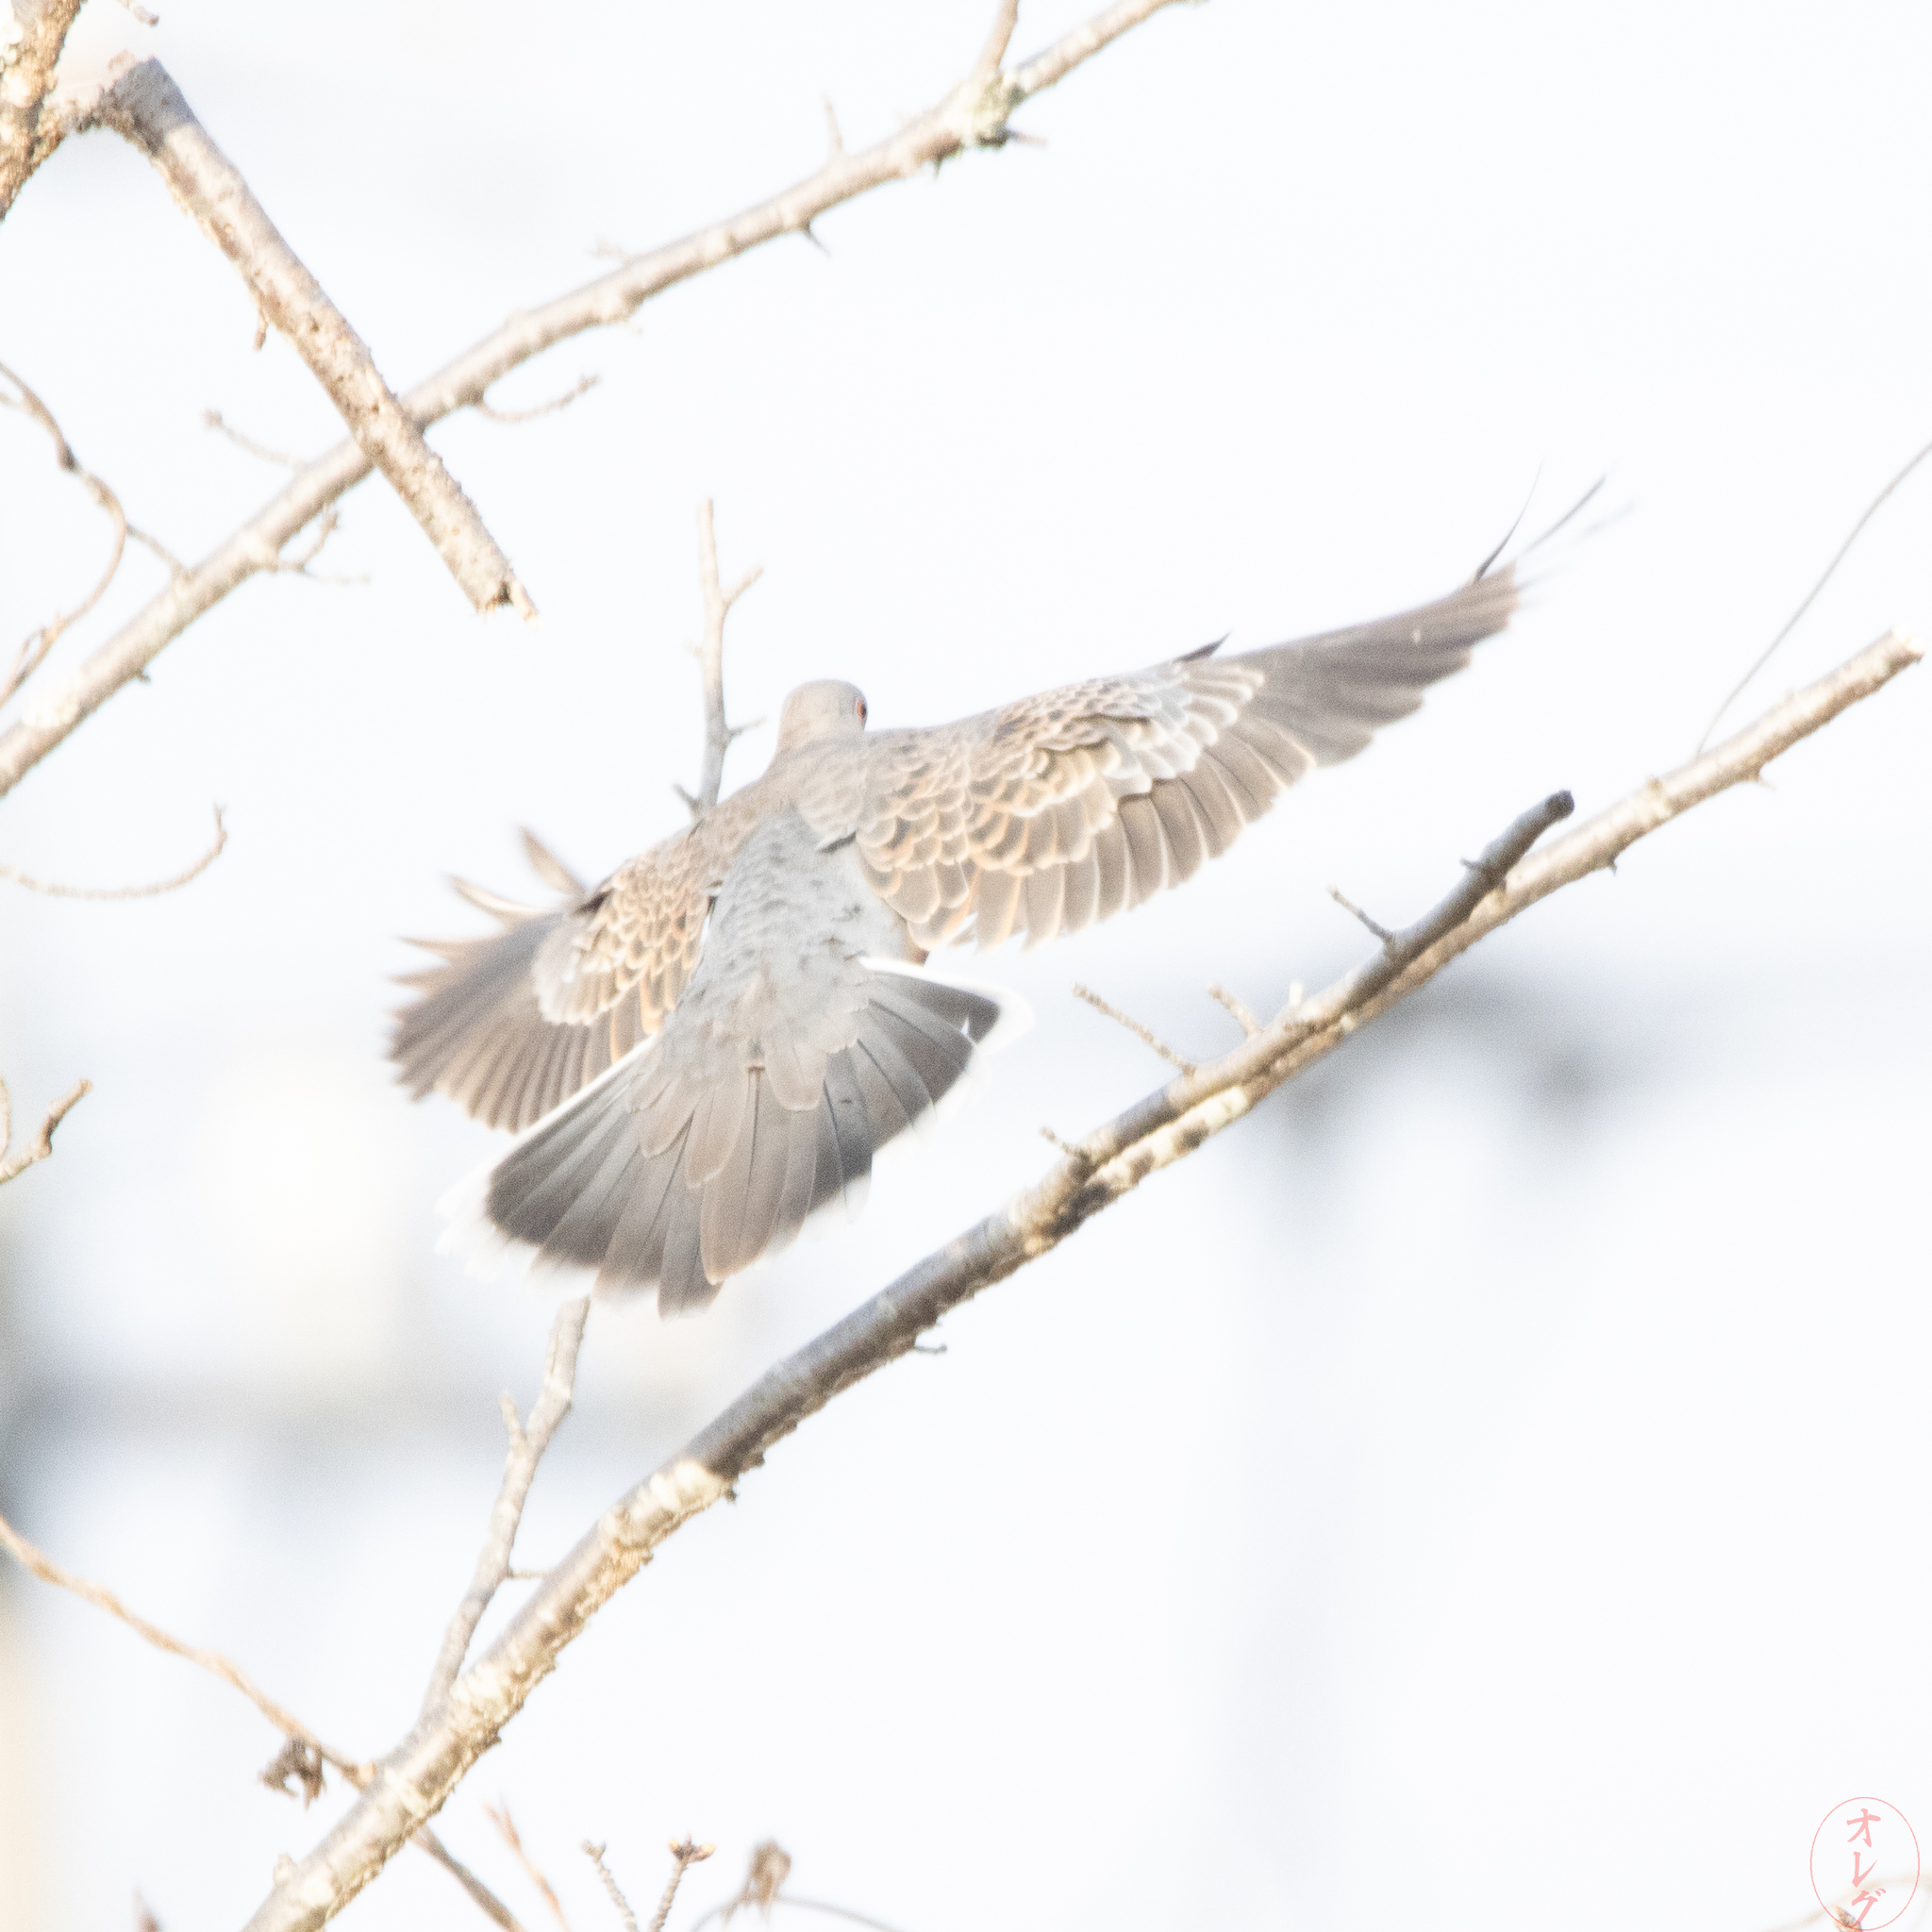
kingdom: Animalia
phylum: Chordata
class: Aves
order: Columbiformes
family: Columbidae
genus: Streptopelia
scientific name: Streptopelia orientalis
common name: Oriental turtle dove
